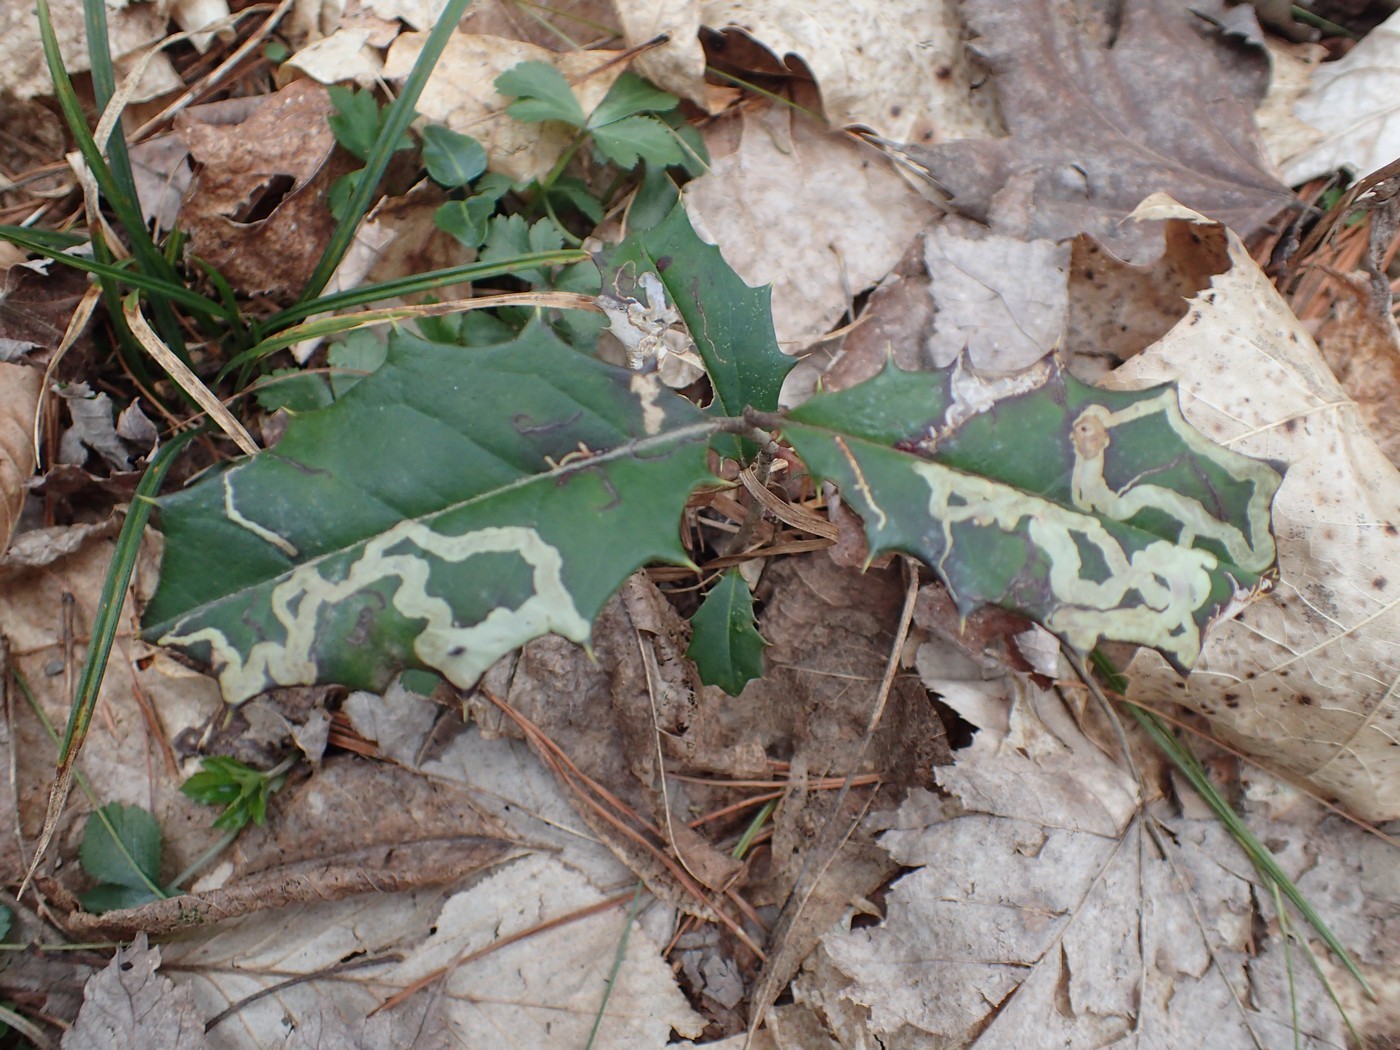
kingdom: Animalia
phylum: Arthropoda
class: Insecta
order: Diptera
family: Agromyzidae
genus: Phytomyza
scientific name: Phytomyza ilicicola
